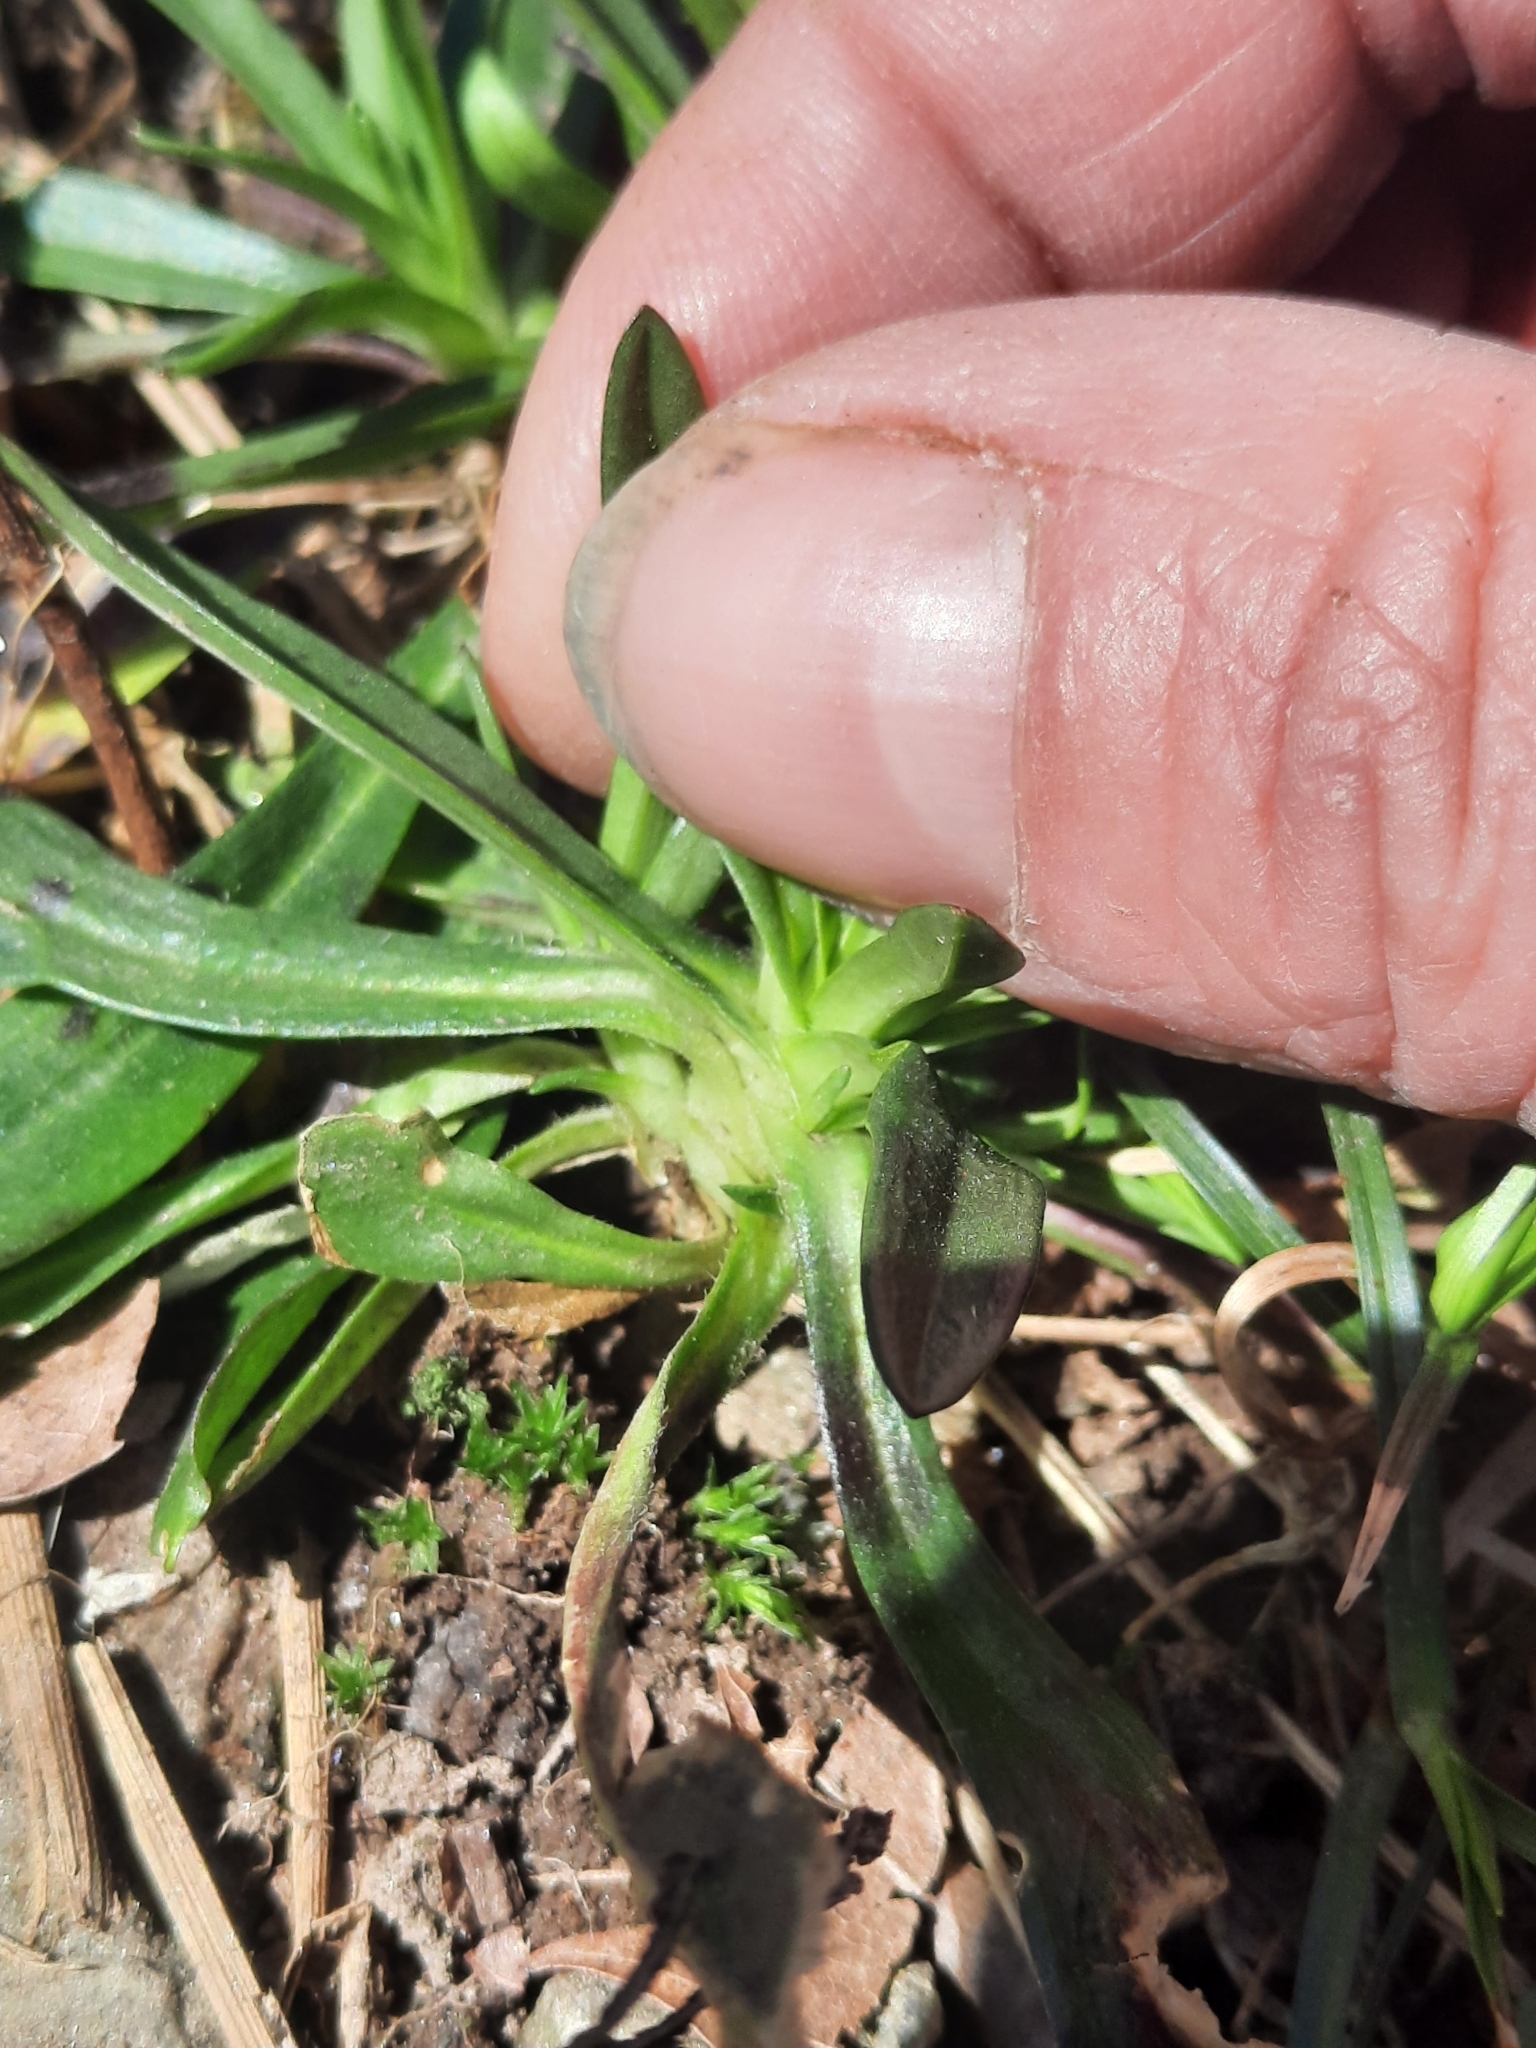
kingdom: Plantae
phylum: Tracheophyta
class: Magnoliopsida
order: Caryophyllales
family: Caryophyllaceae
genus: Dianthus
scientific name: Dianthus armeria
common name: Deptford pink
